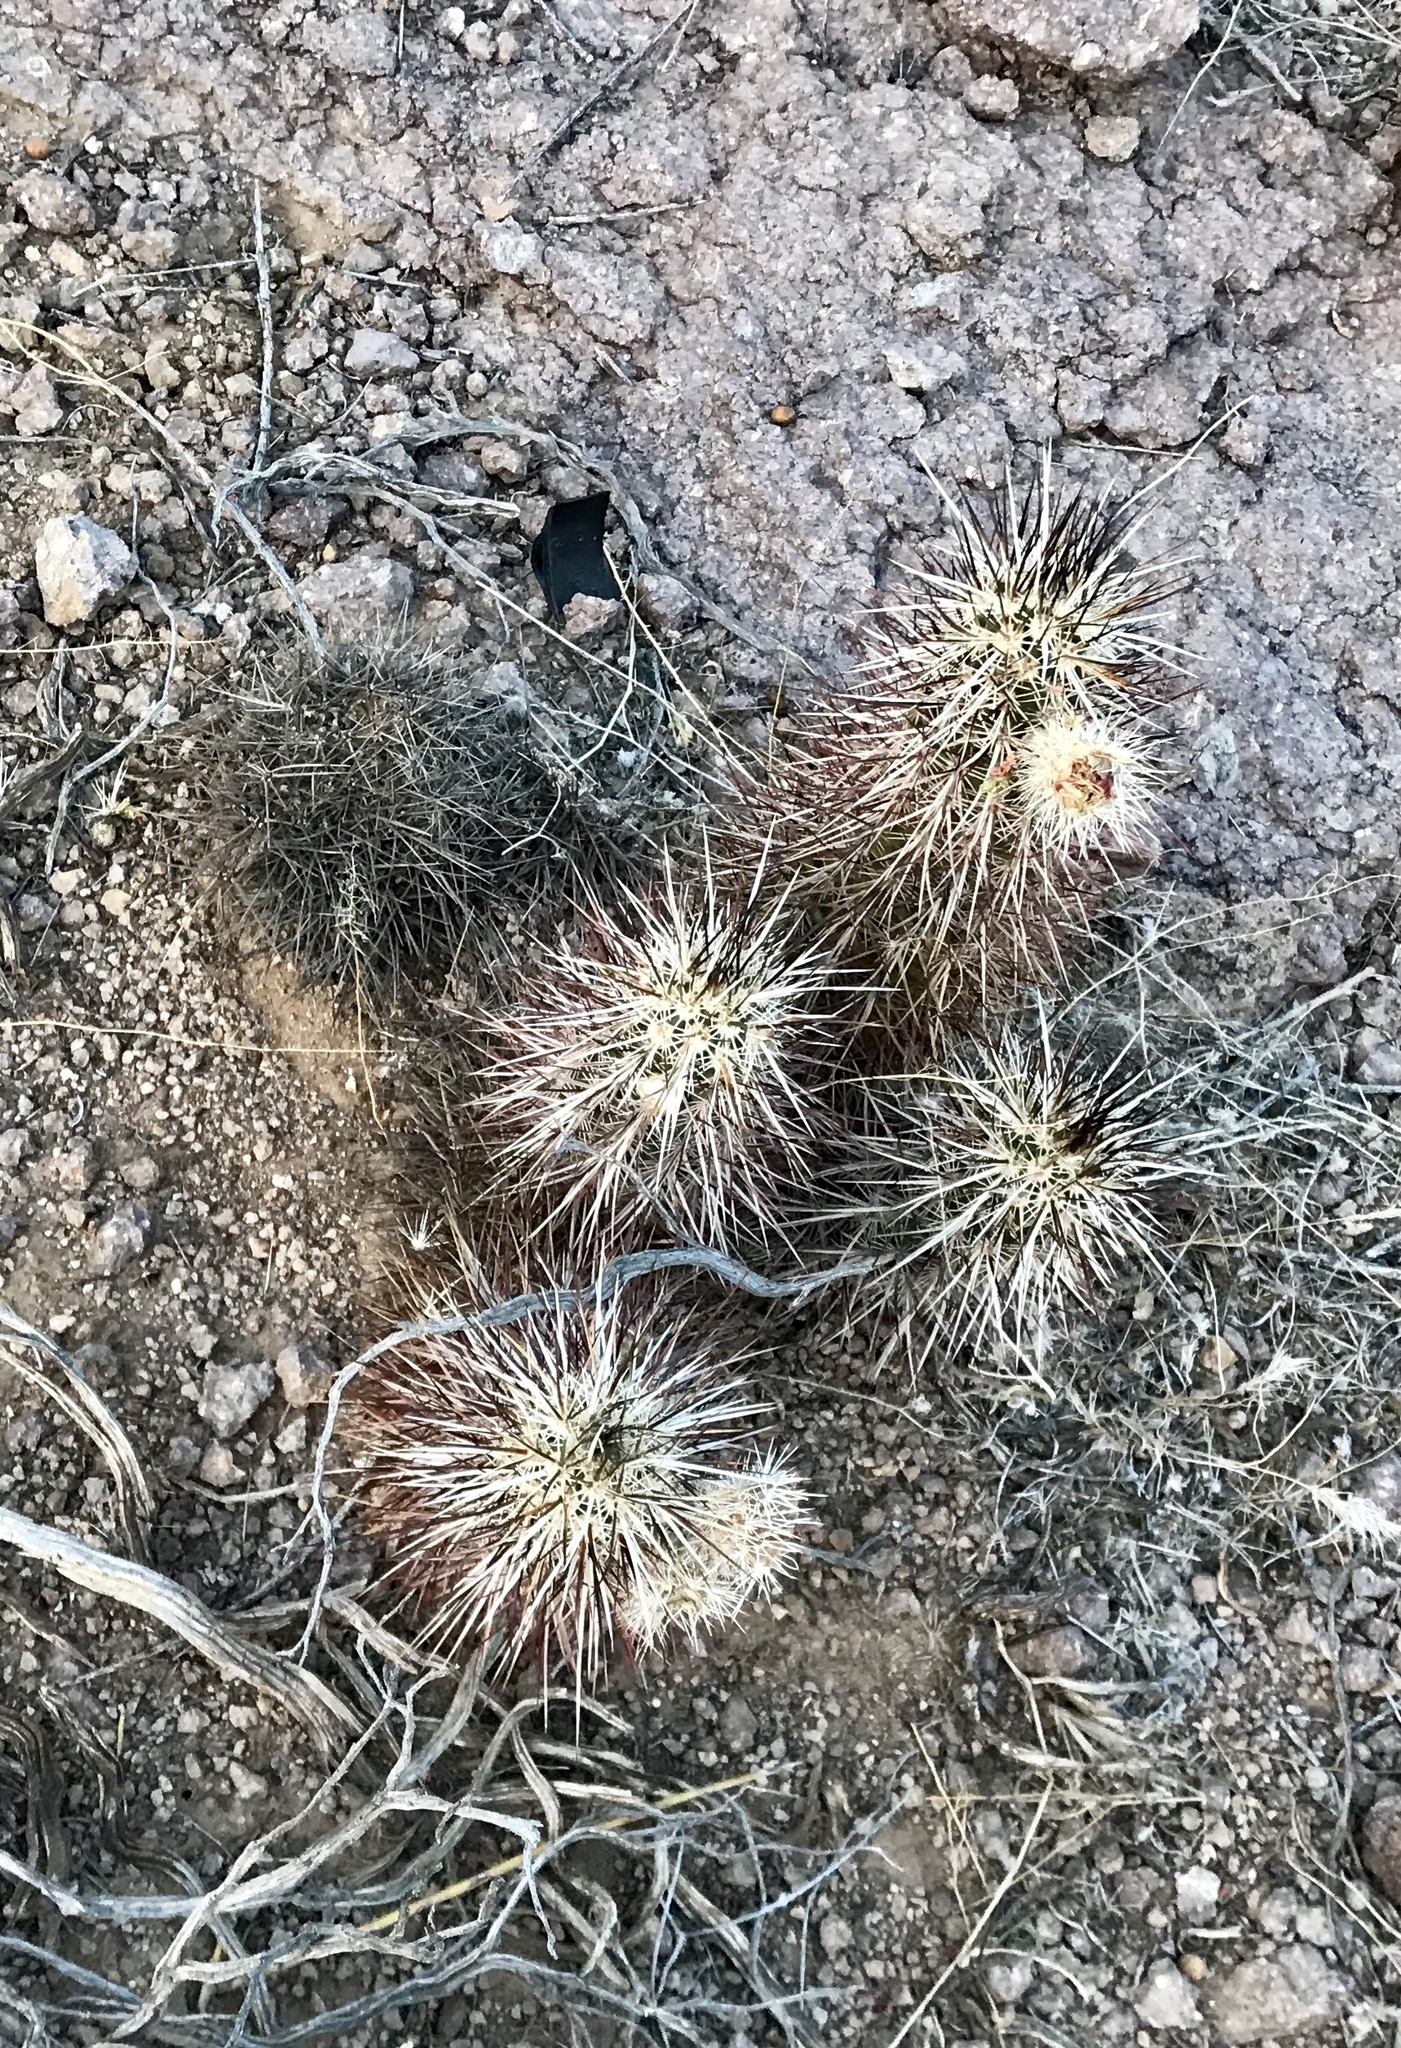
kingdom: Plantae
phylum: Tracheophyta
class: Magnoliopsida
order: Caryophyllales
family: Cactaceae
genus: Echinocereus
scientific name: Echinocereus engelmannii
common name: Engelmann's hedgehog cactus
